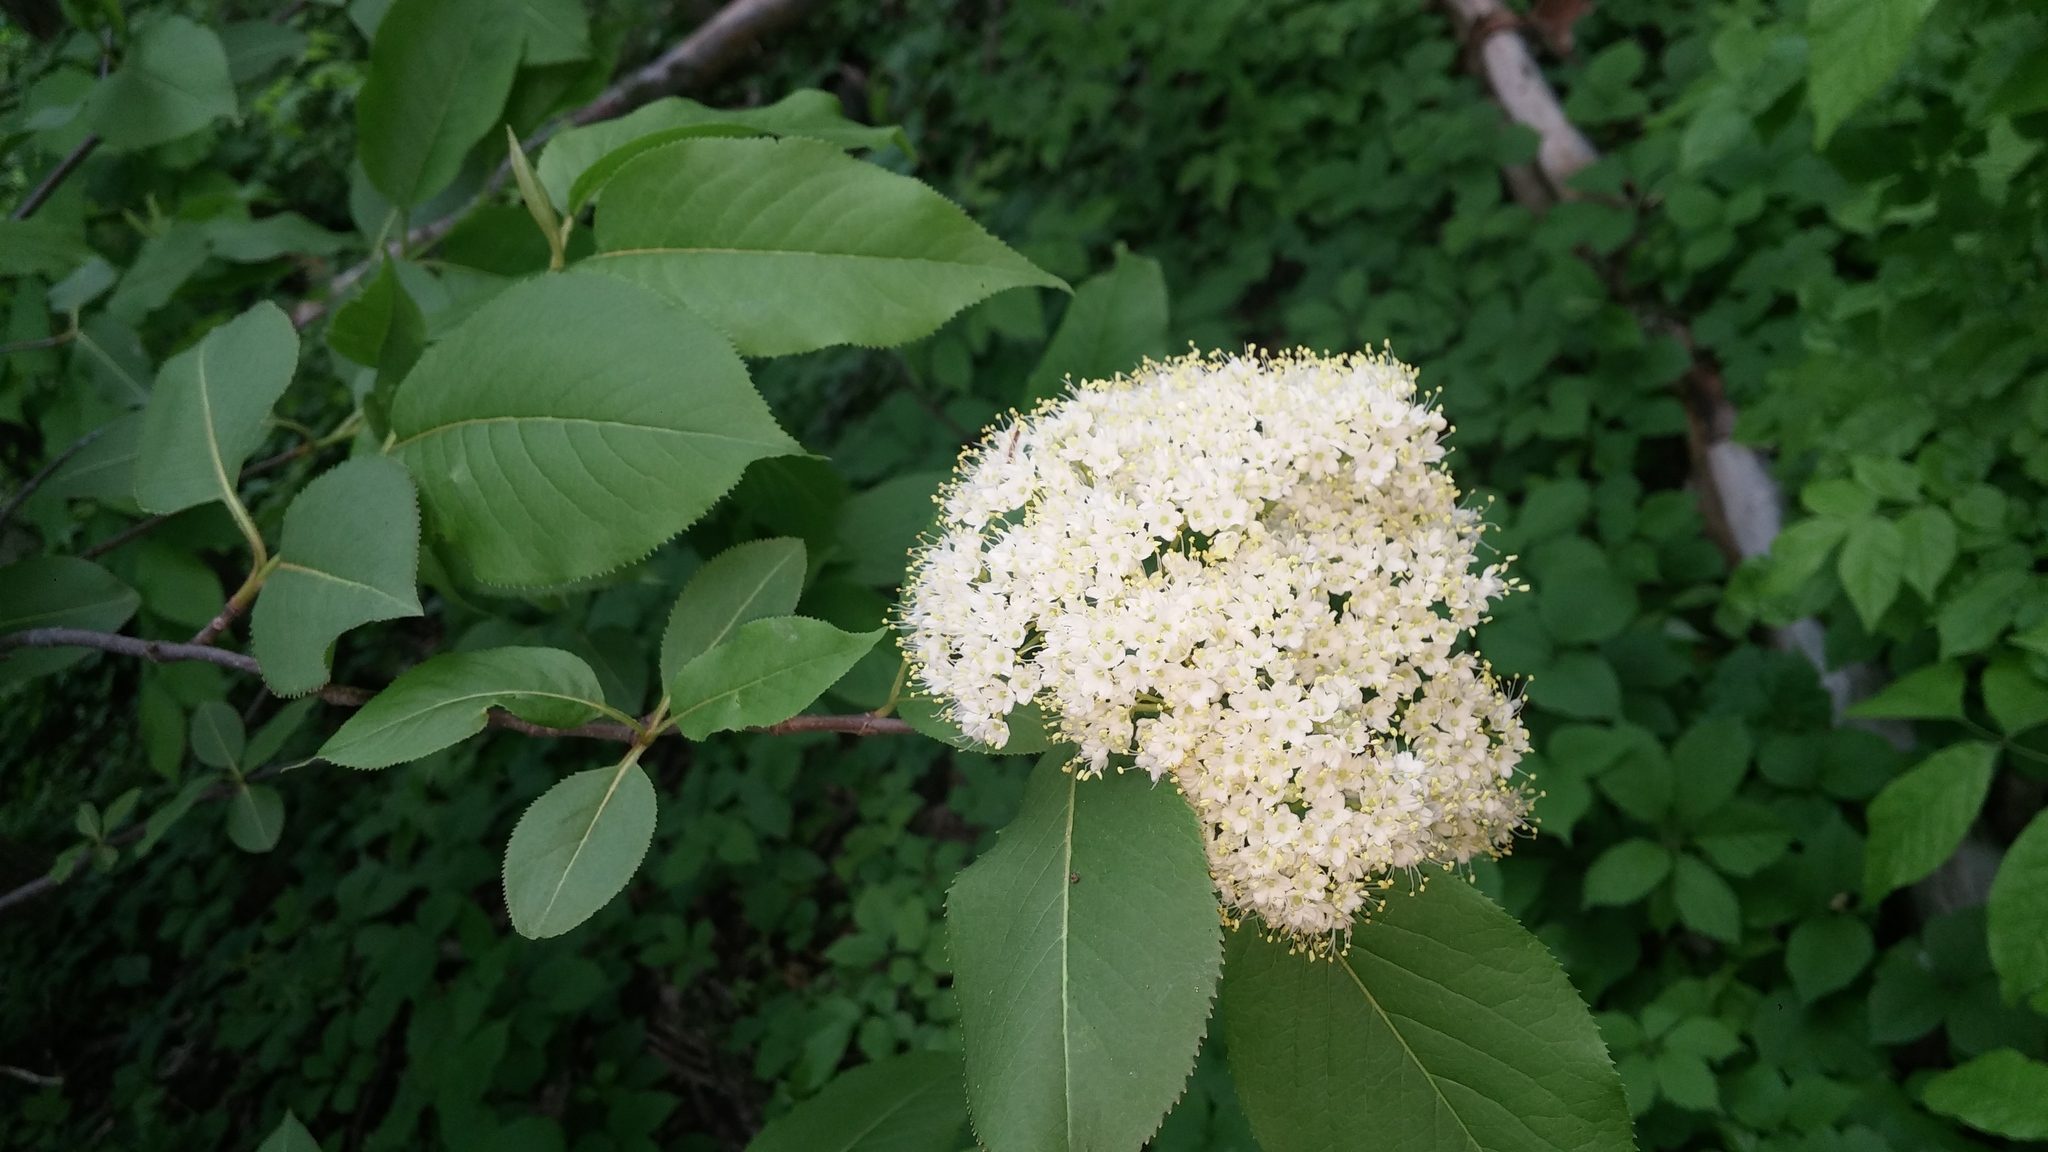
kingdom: Plantae
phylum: Tracheophyta
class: Magnoliopsida
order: Dipsacales
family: Viburnaceae
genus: Viburnum
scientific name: Viburnum lentago
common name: Black haw
